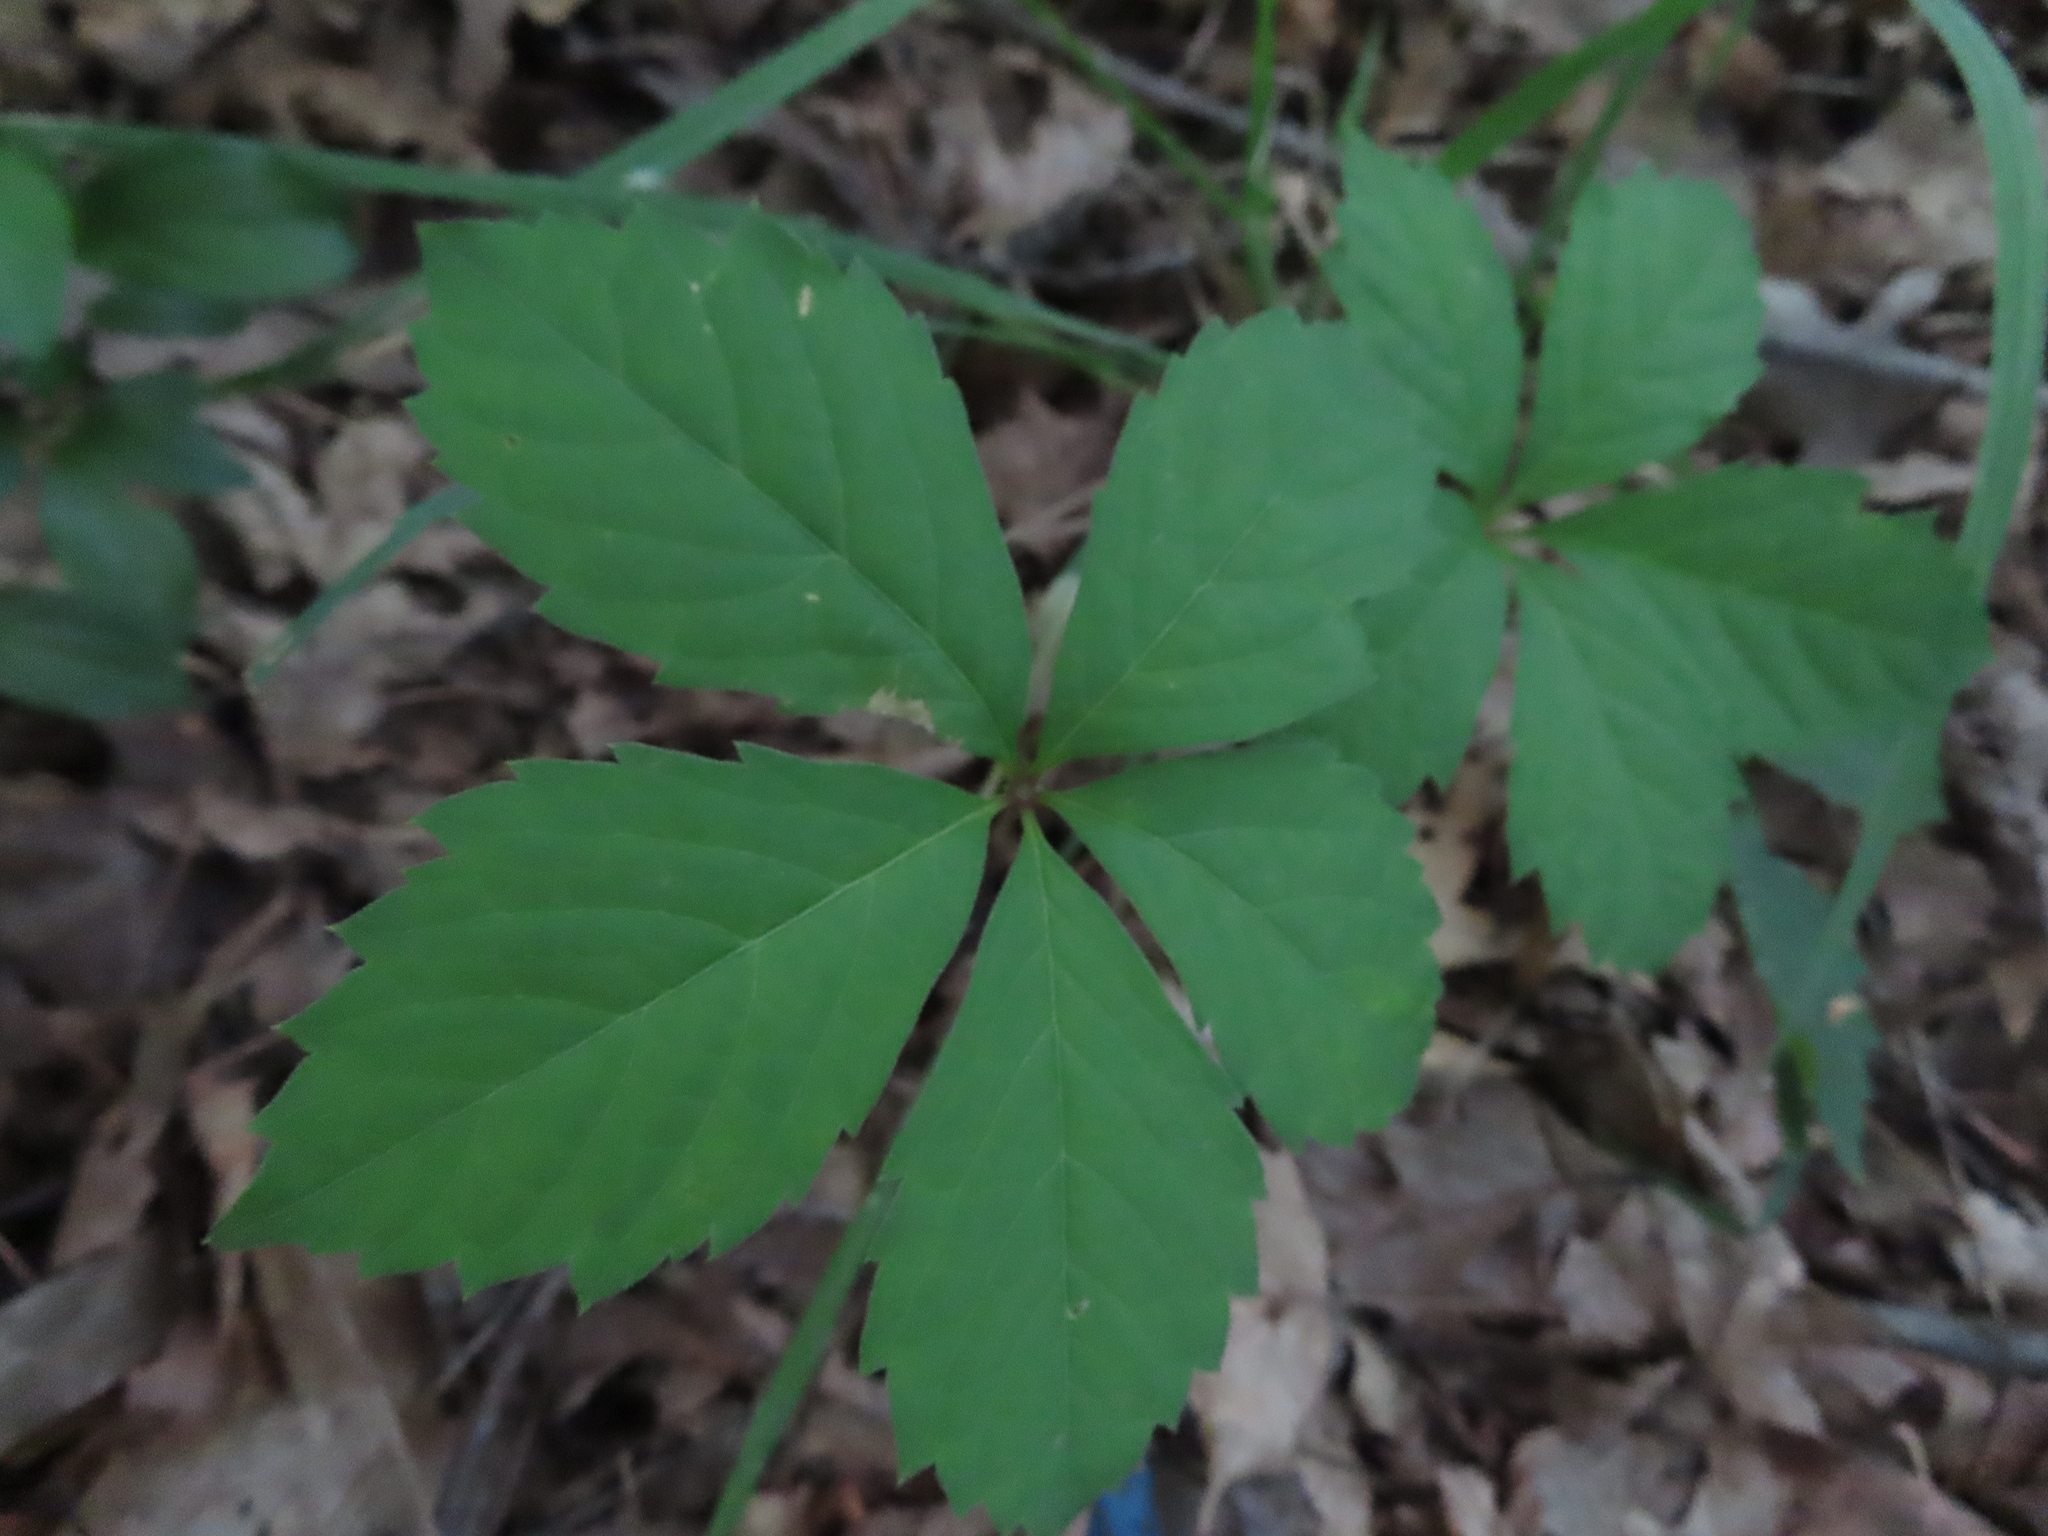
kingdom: Plantae
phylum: Tracheophyta
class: Magnoliopsida
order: Vitales
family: Vitaceae
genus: Parthenocissus
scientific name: Parthenocissus quinquefolia
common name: Virginia-creeper
